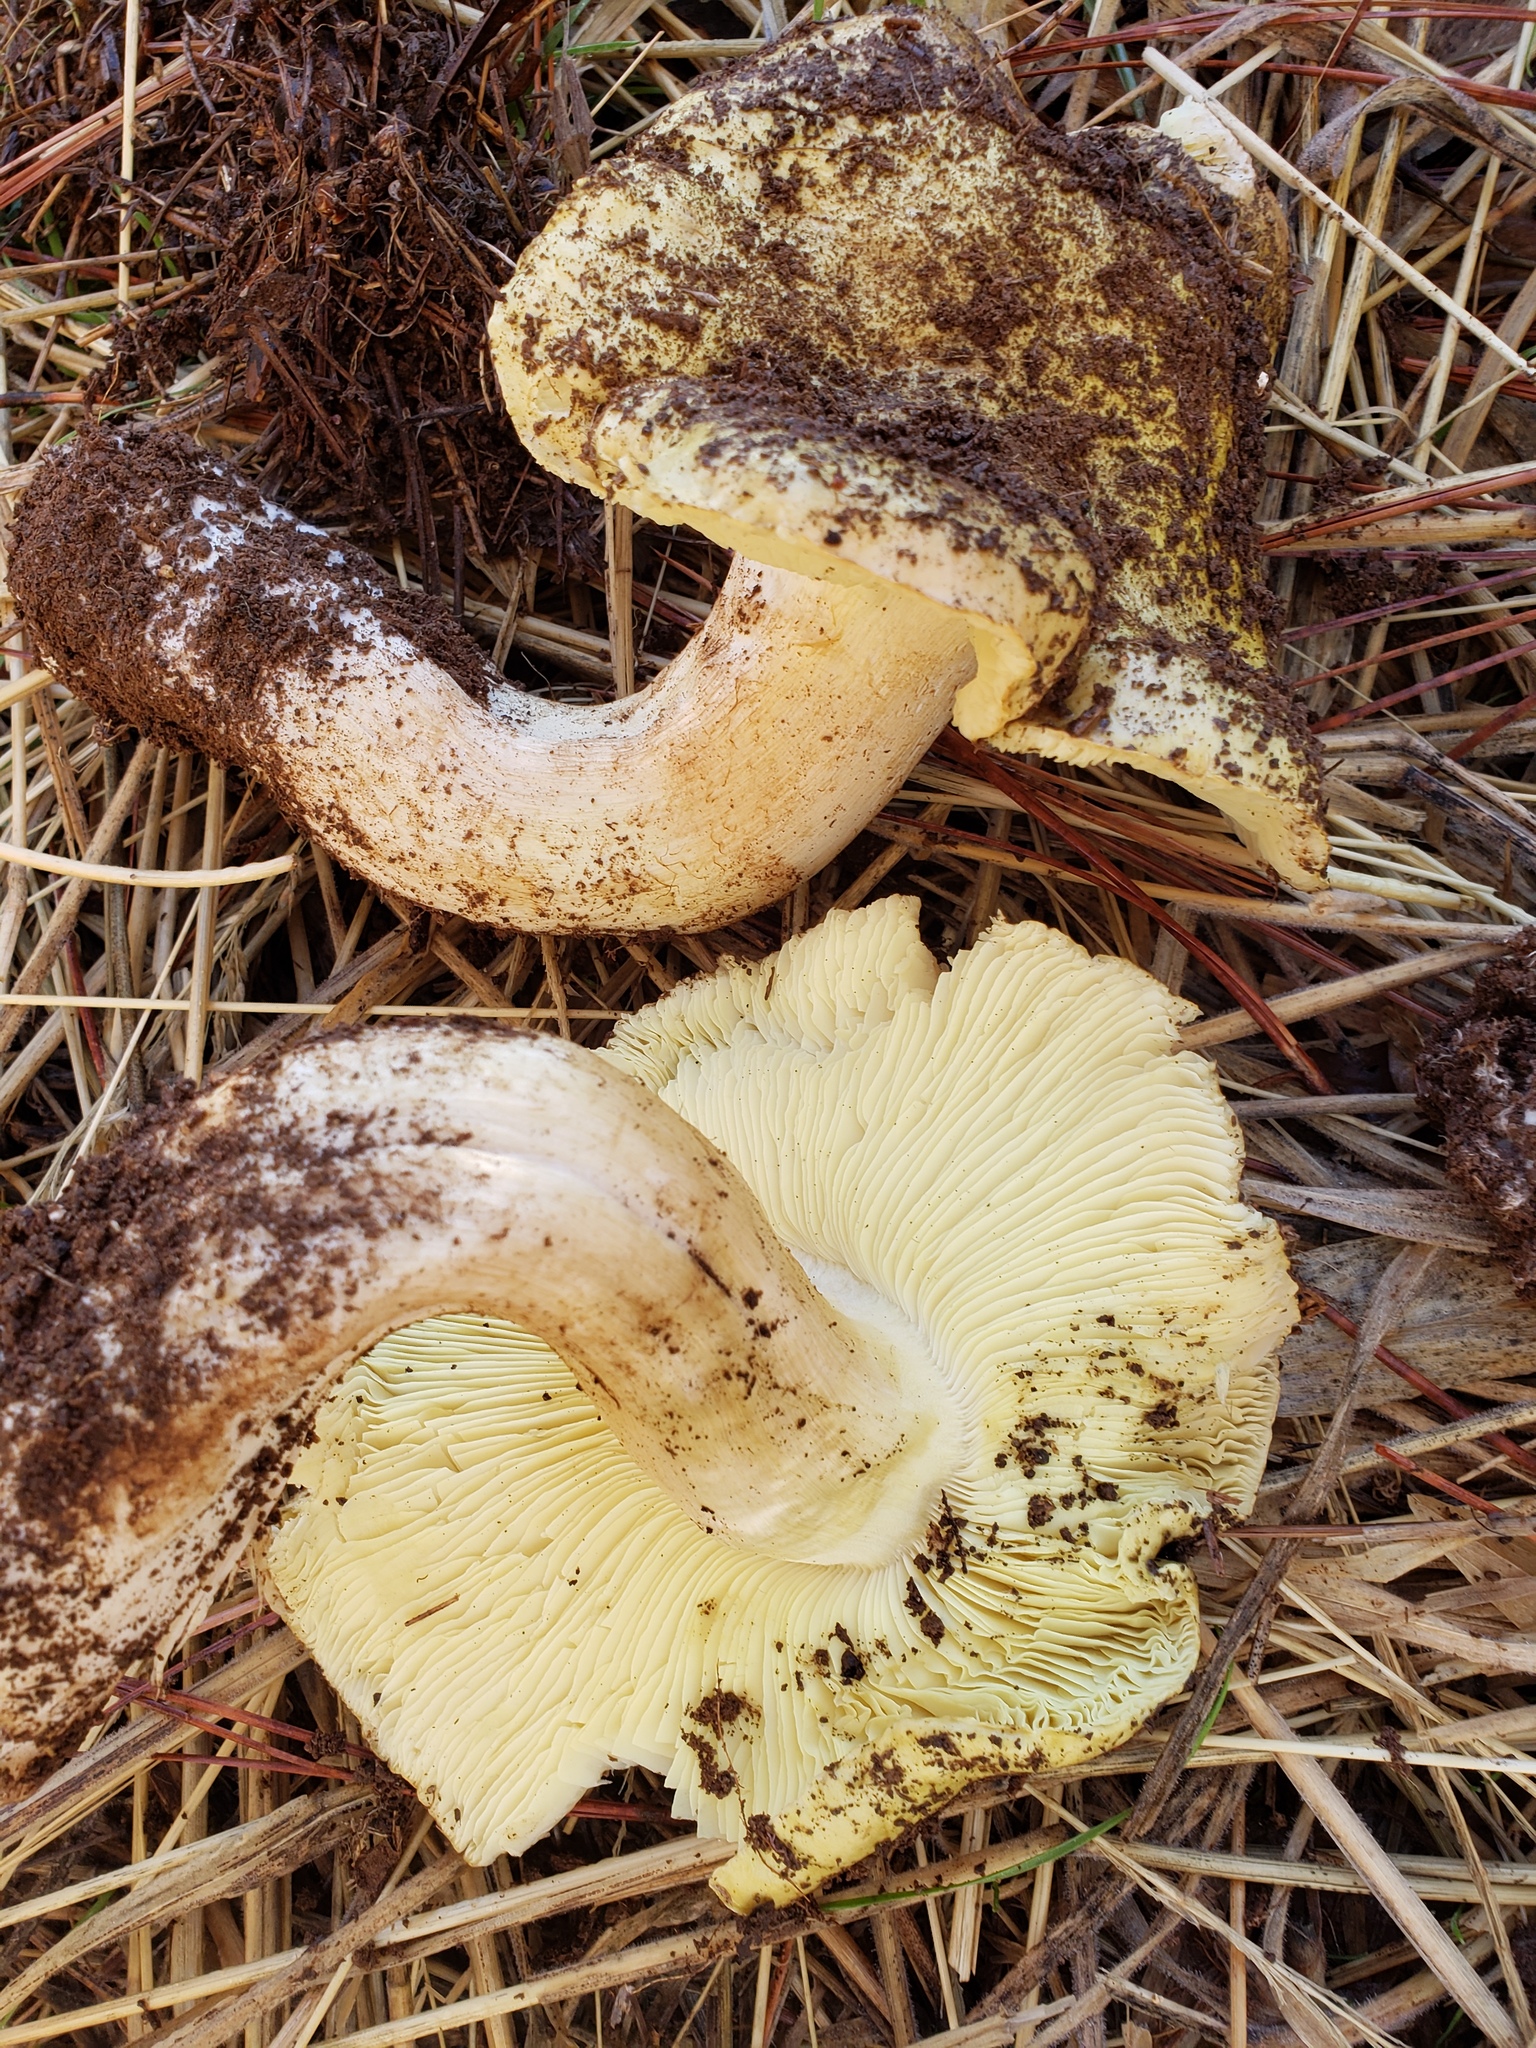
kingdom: Fungi
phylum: Basidiomycota
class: Agaricomycetes
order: Agaricales
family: Tricholomataceae
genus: Tricholoma
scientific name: Tricholoma equestre
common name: Yellow knight
